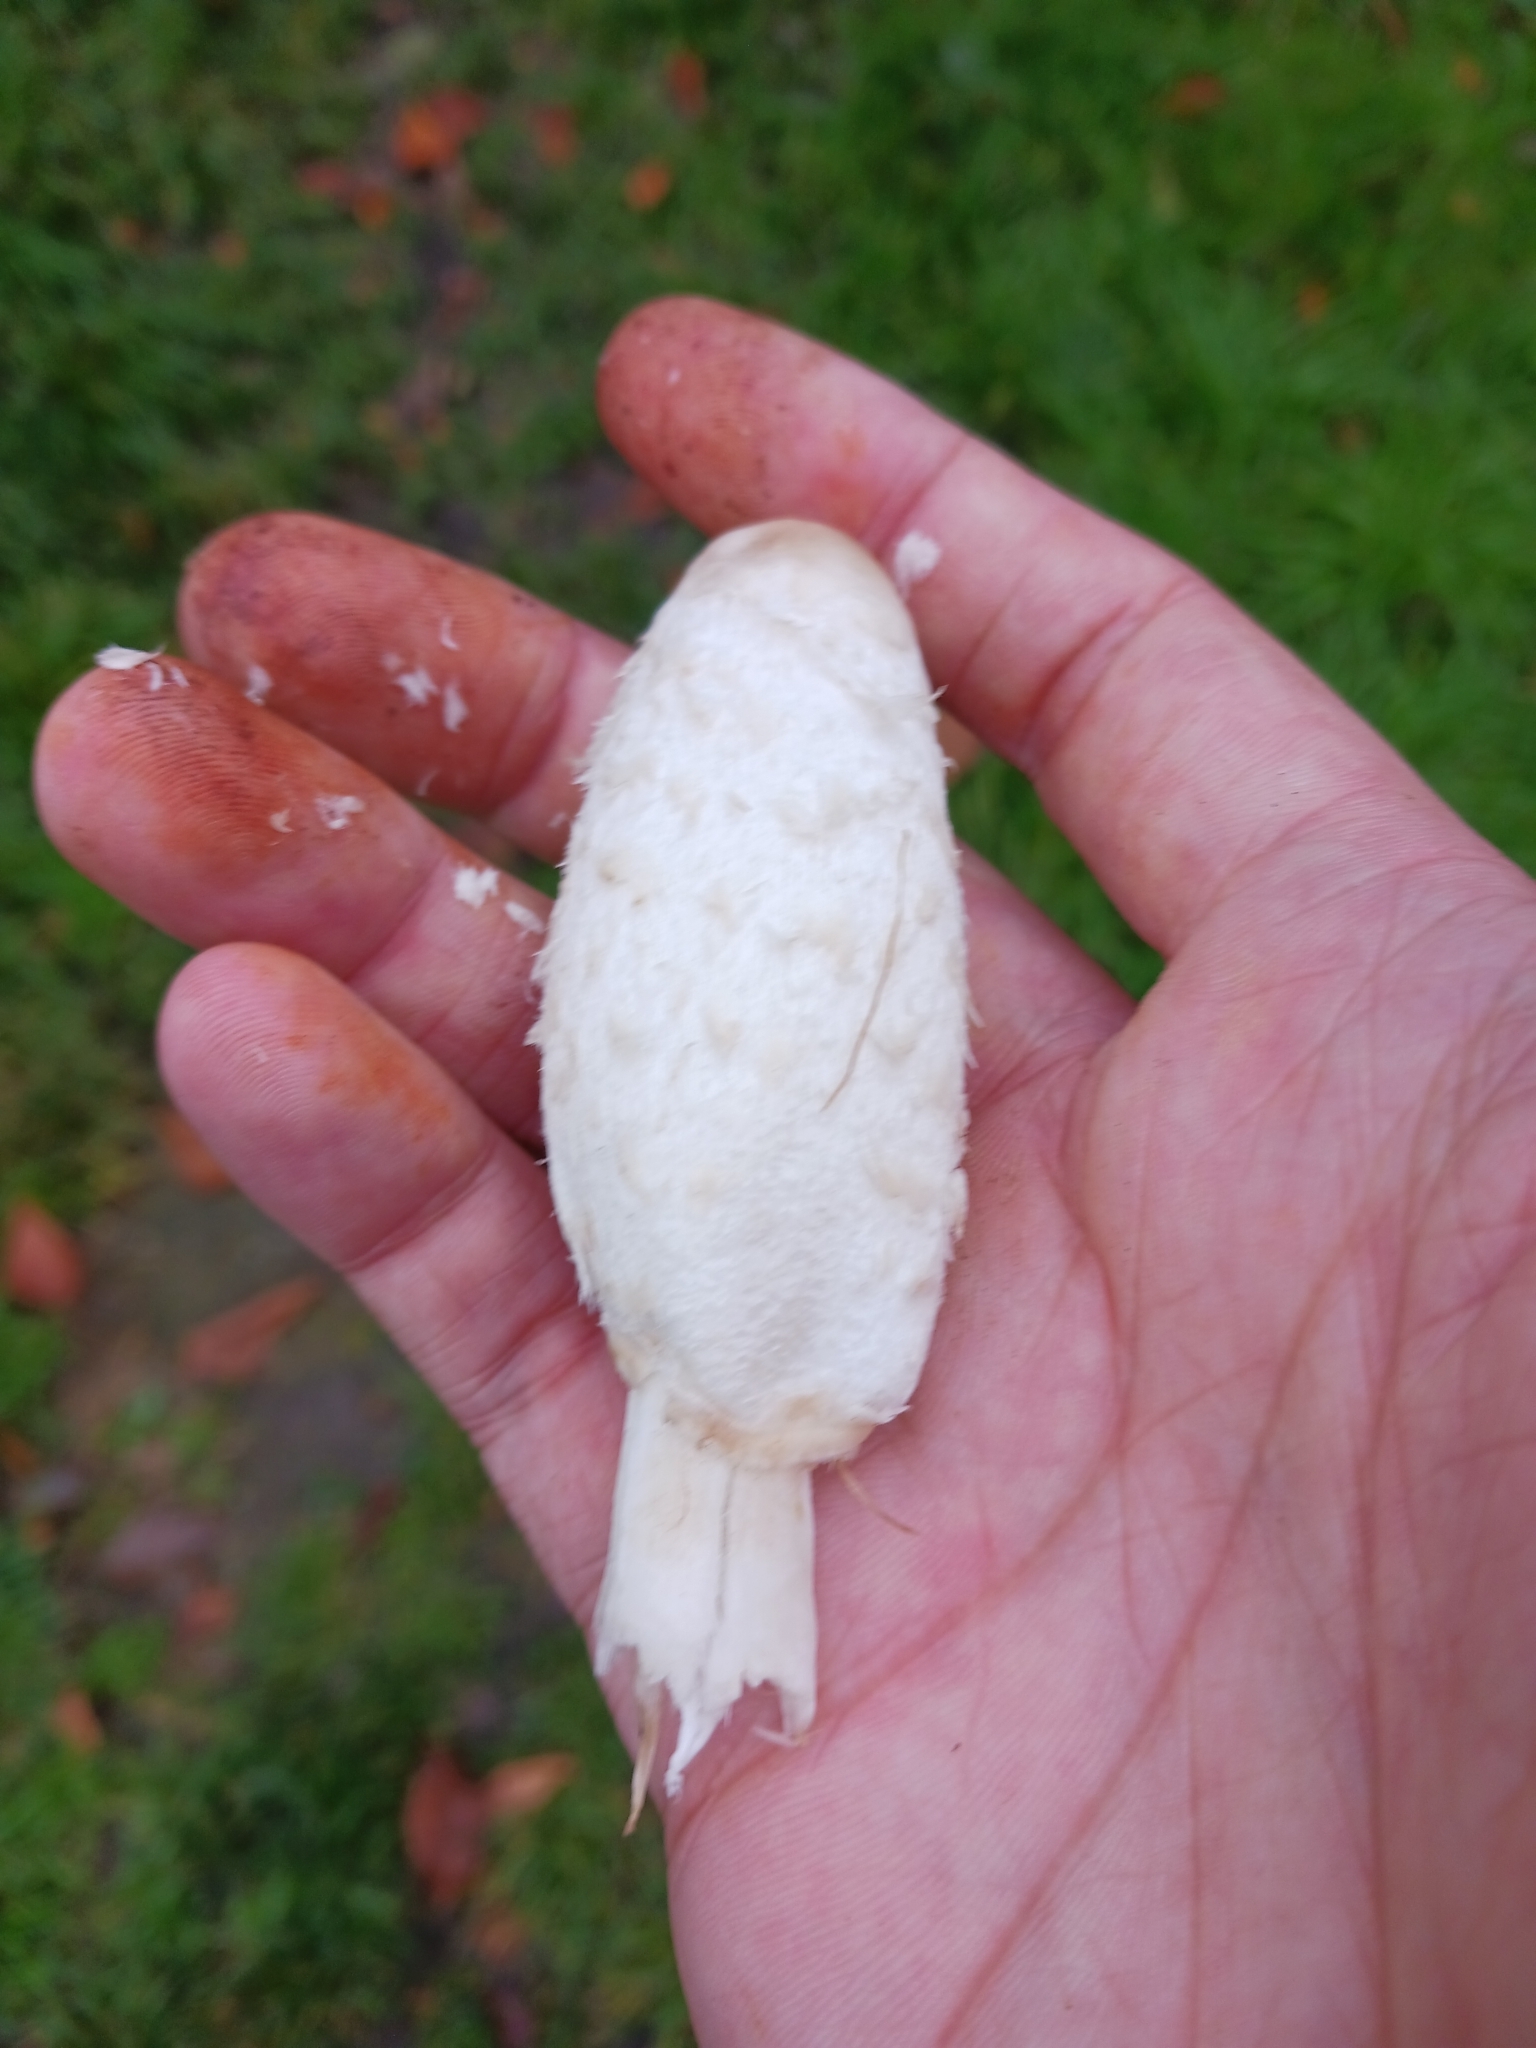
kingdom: Fungi
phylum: Basidiomycota
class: Agaricomycetes
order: Agaricales
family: Agaricaceae
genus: Coprinus
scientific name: Coprinus comatus
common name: Lawyer's wig
